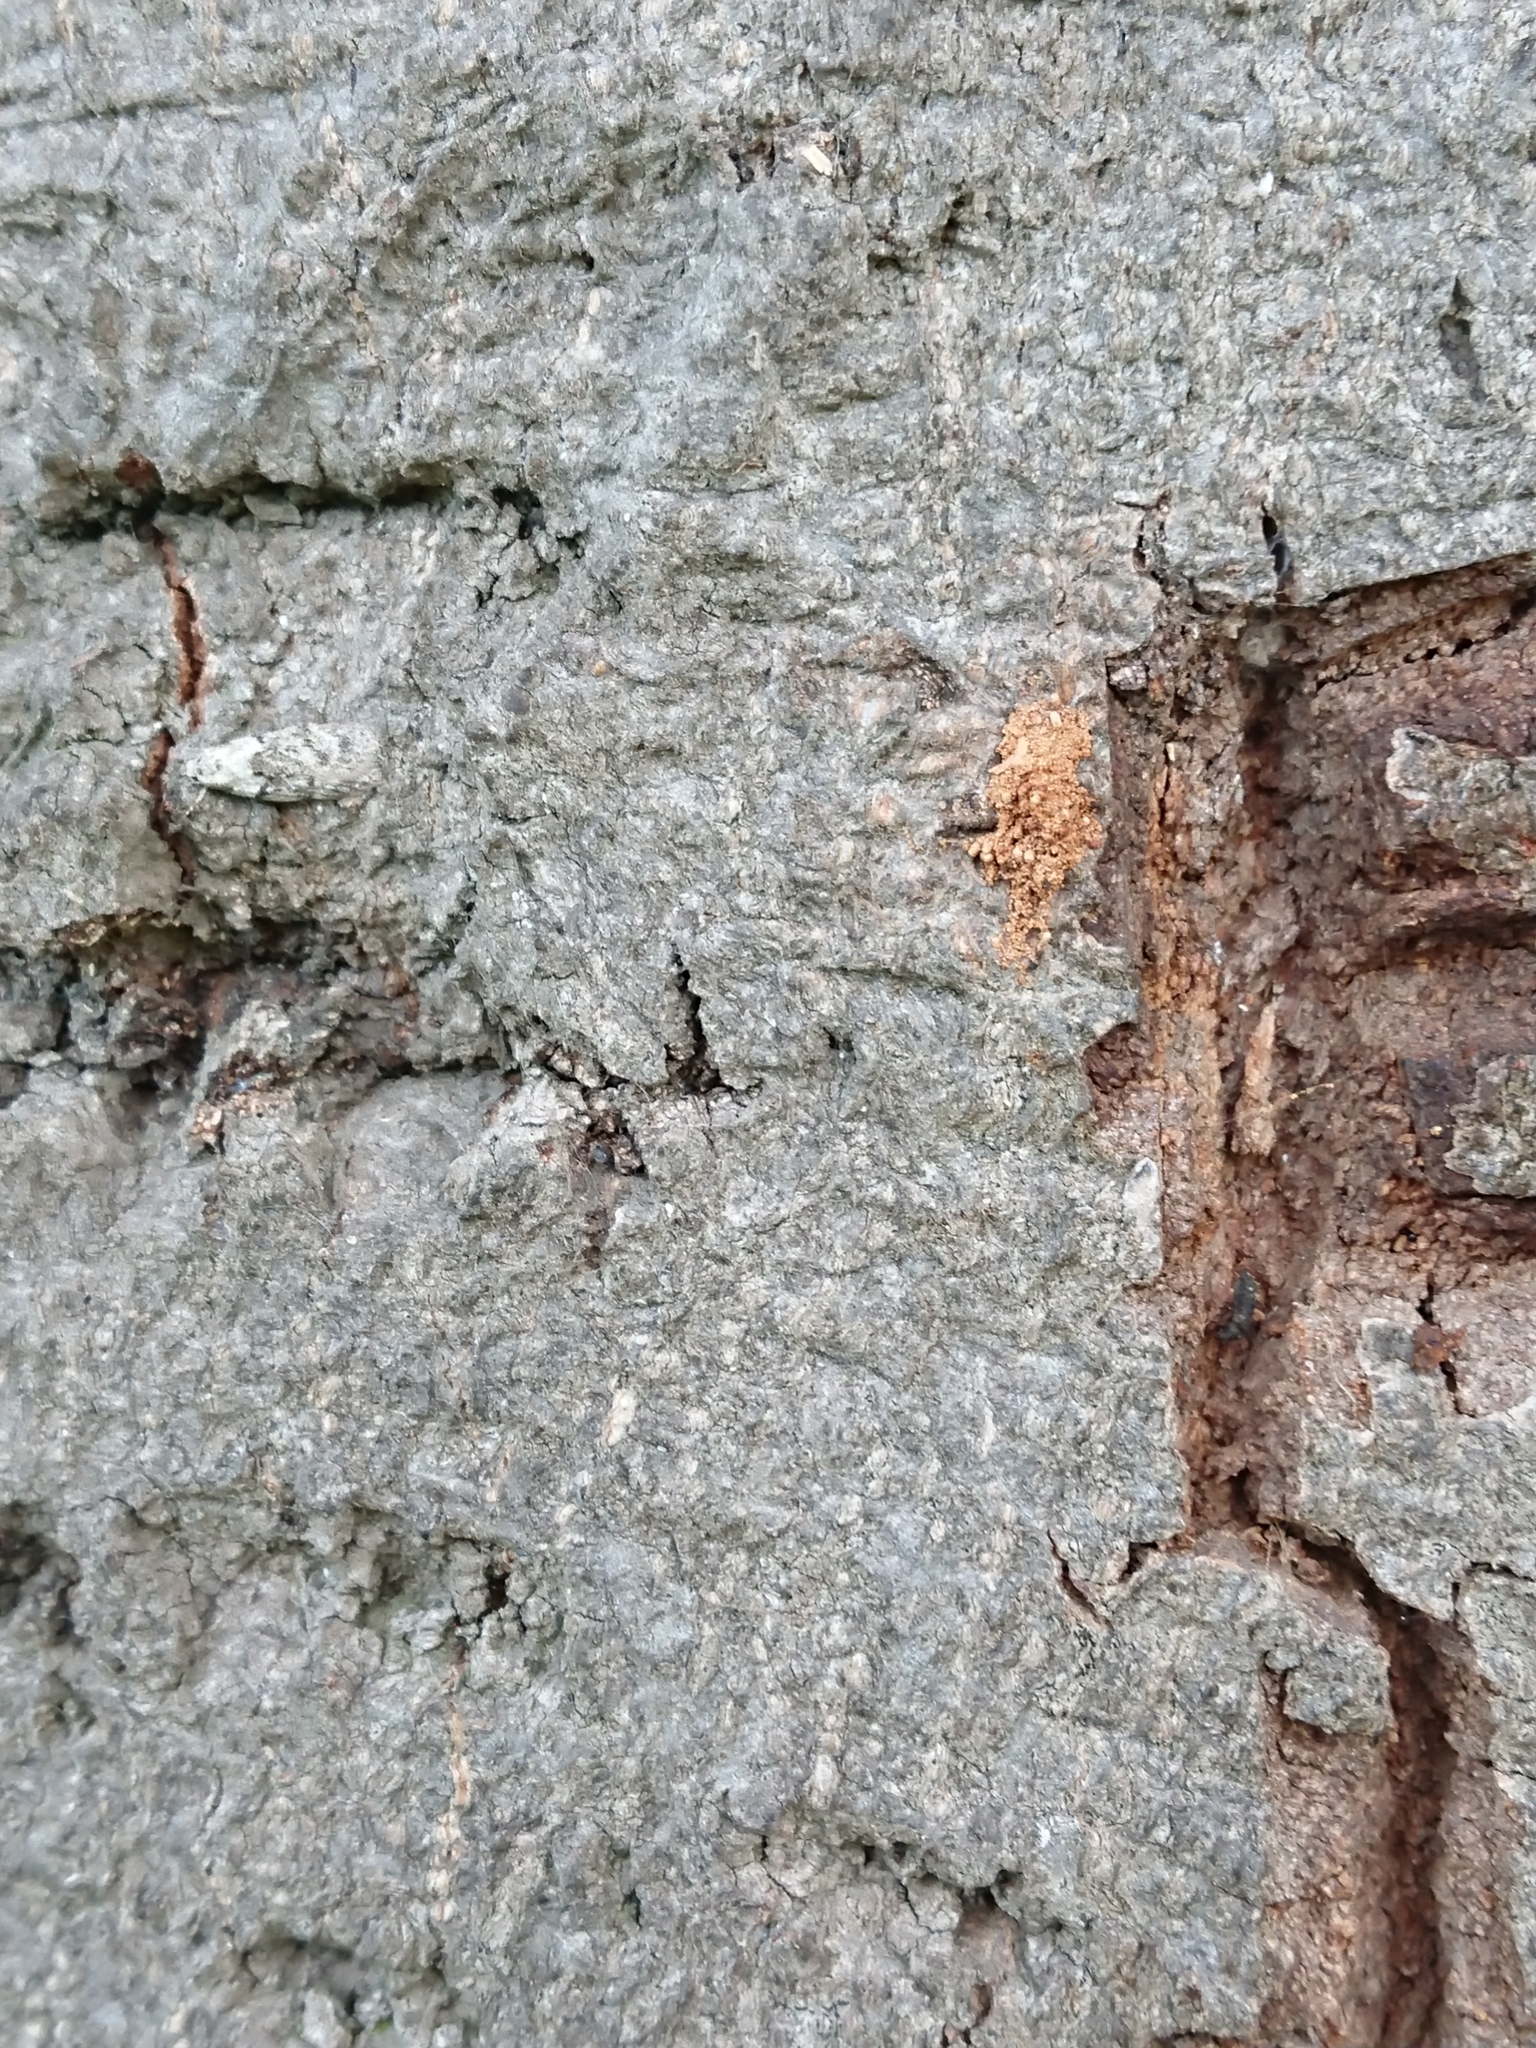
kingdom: Animalia
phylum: Arthropoda
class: Insecta
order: Lepidoptera
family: Oecophoridae
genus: Izatha
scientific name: Izatha convulsella
